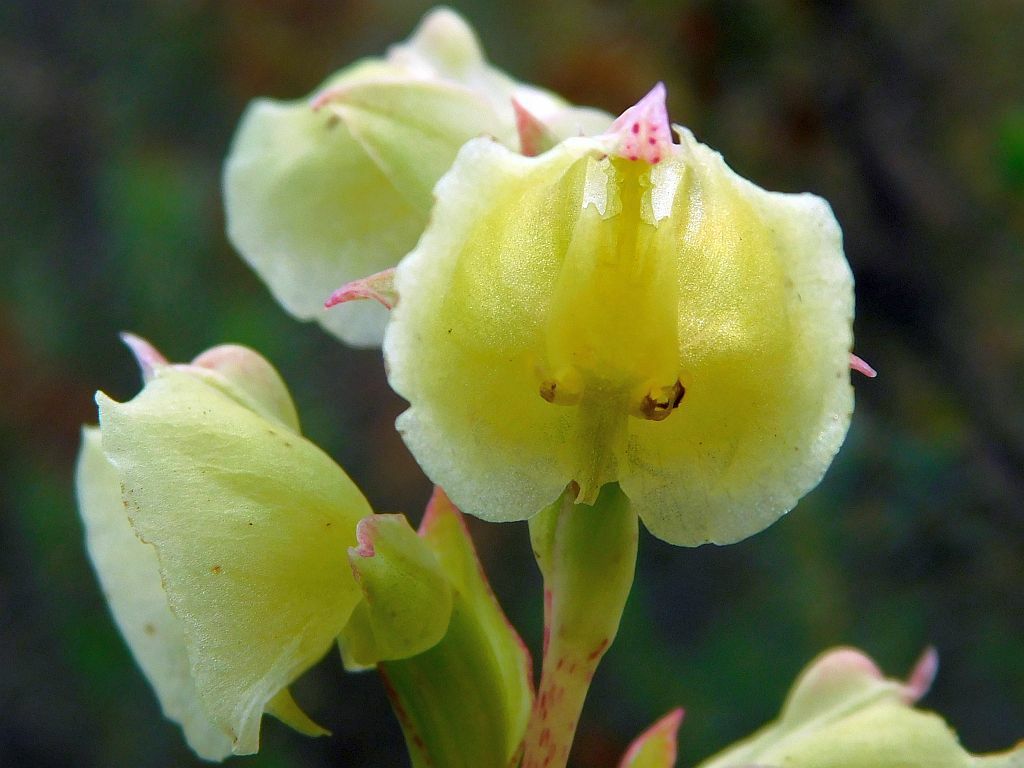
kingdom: Plantae
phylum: Tracheophyta
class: Liliopsida
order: Asparagales
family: Orchidaceae
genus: Pterygodium
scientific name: Pterygodium catholicum
